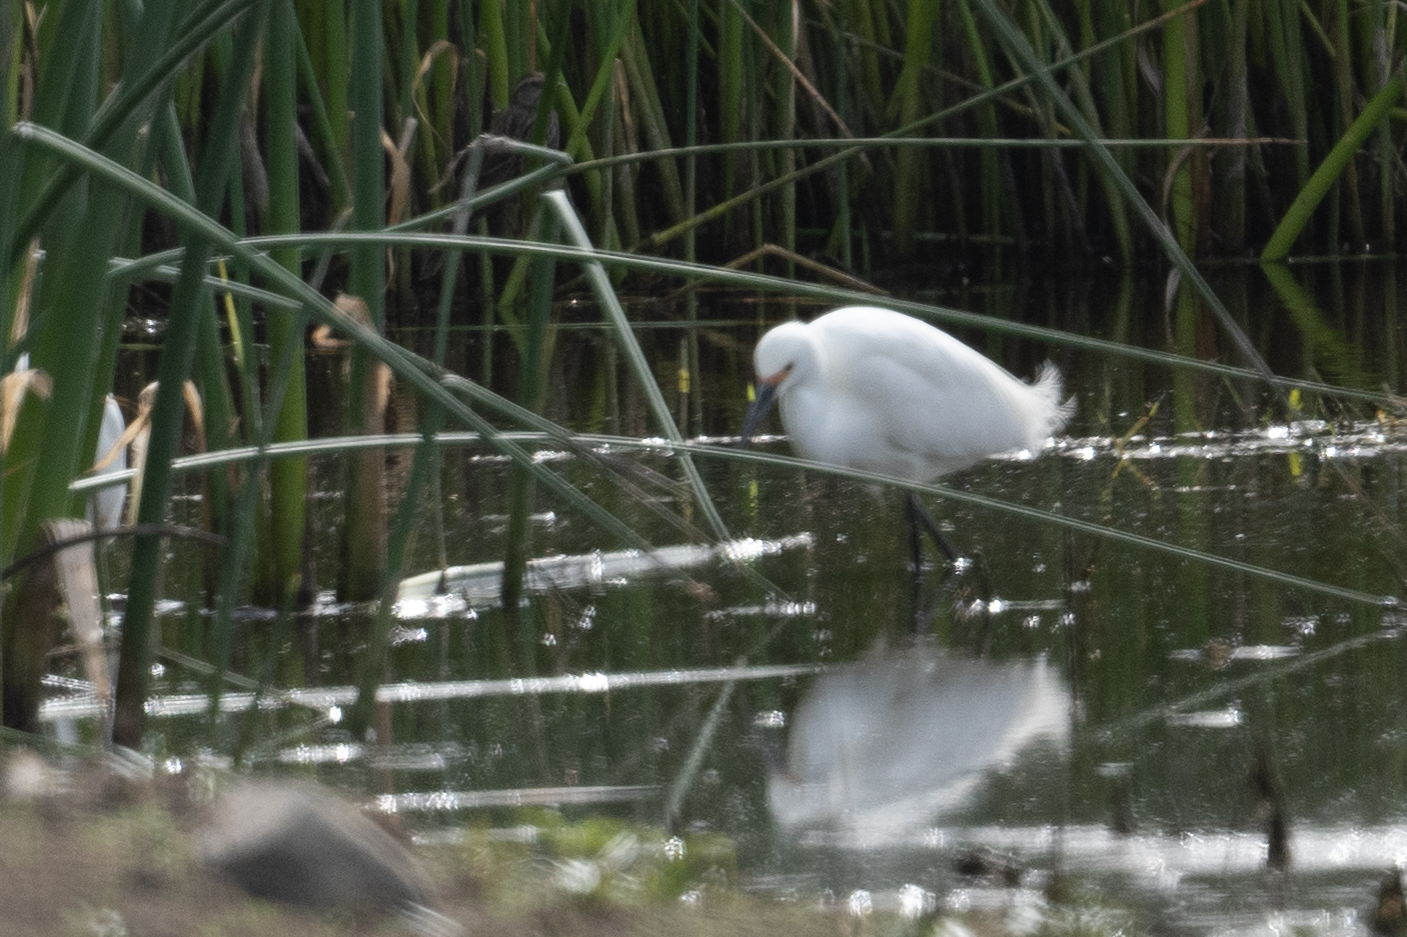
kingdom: Animalia
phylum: Chordata
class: Aves
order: Pelecaniformes
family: Ardeidae
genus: Egretta
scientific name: Egretta thula
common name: Snowy egret
